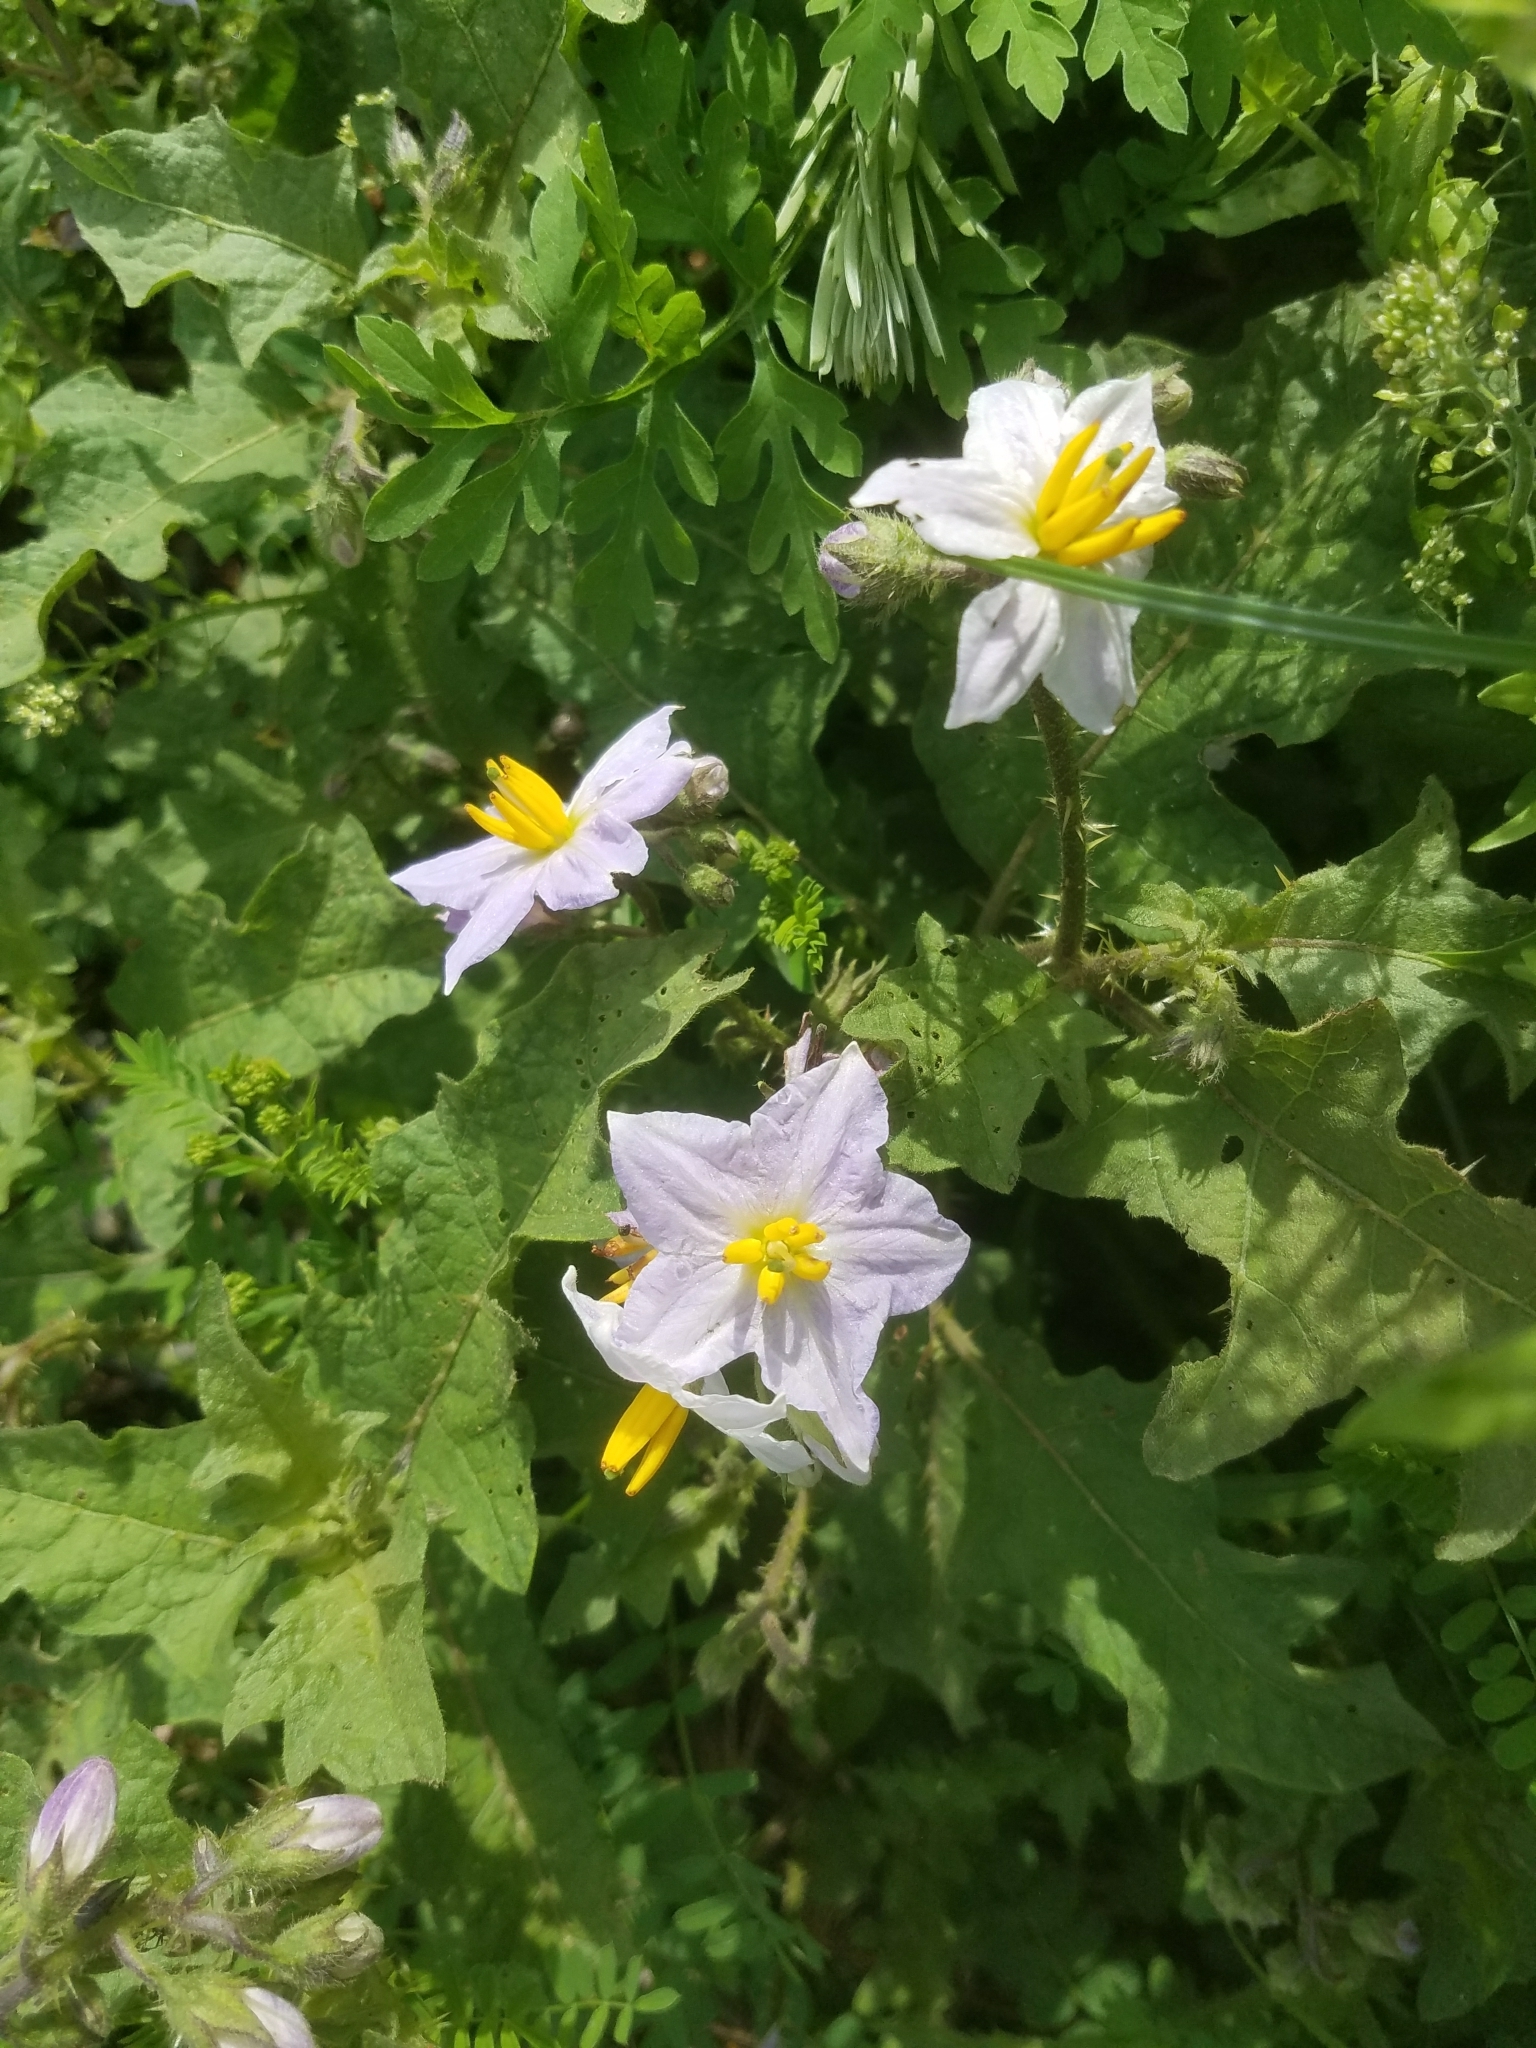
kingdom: Plantae
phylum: Tracheophyta
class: Magnoliopsida
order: Solanales
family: Solanaceae
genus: Solanum
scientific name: Solanum carolinense
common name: Horse-nettle
